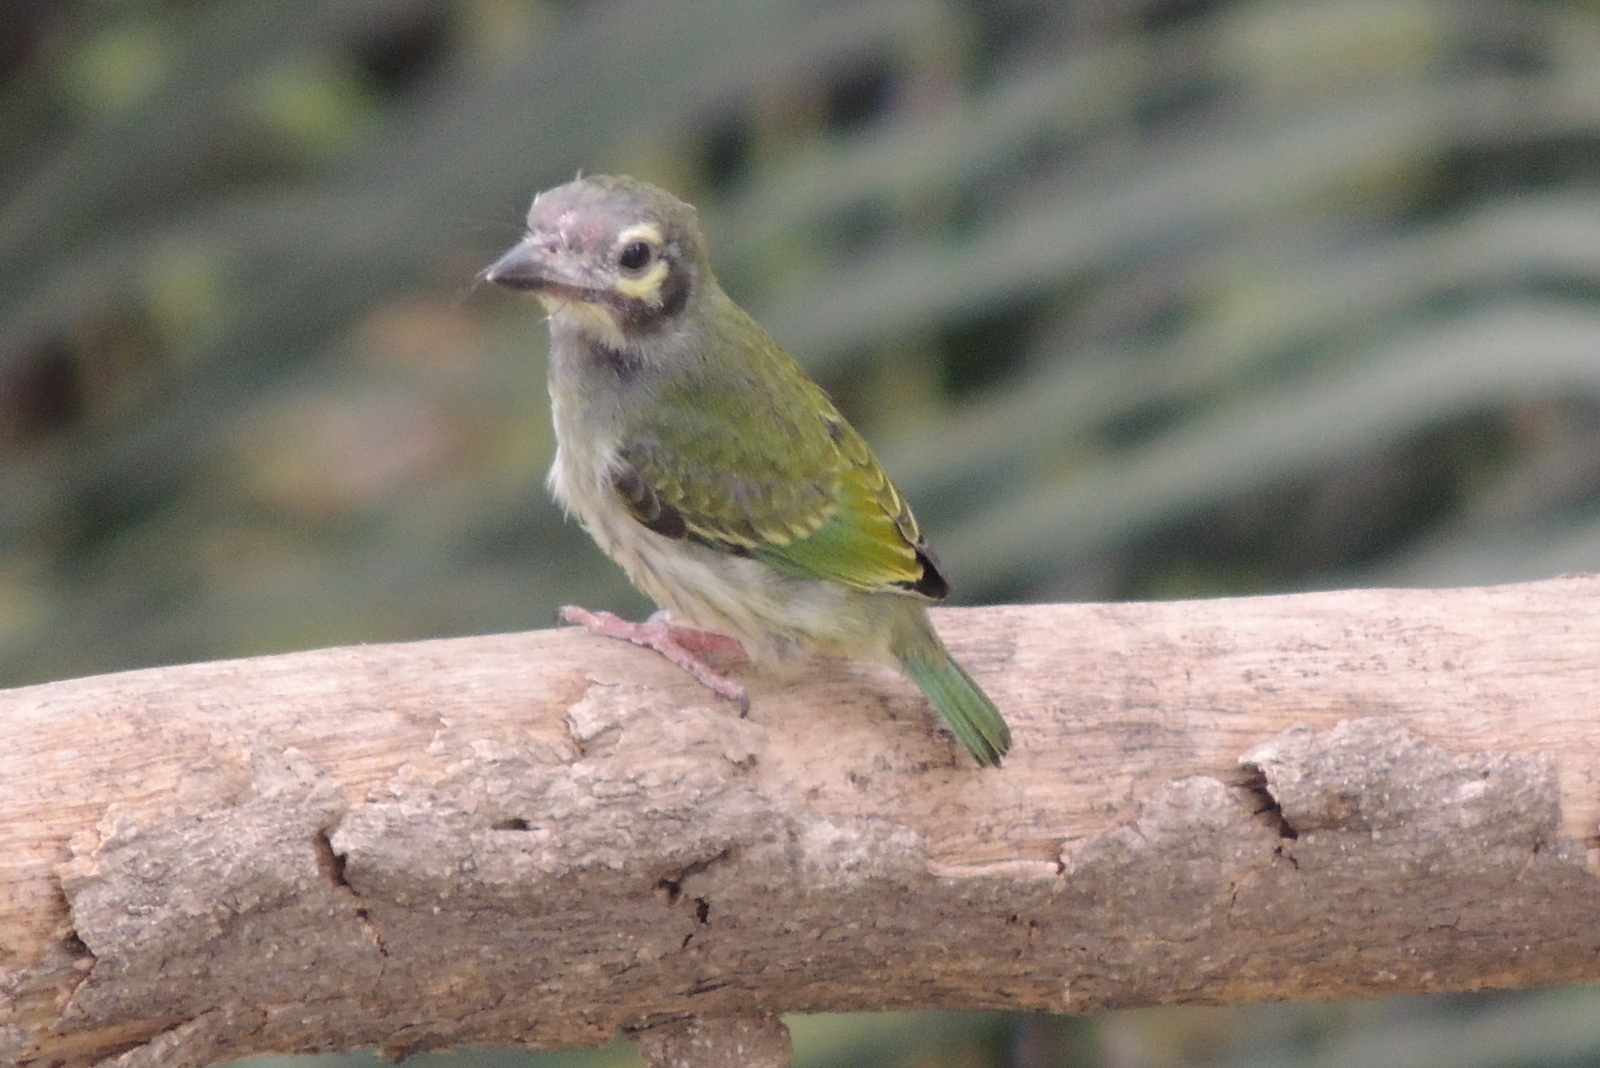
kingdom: Animalia
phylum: Chordata
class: Aves
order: Piciformes
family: Megalaimidae
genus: Psilopogon
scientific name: Psilopogon haemacephalus
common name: Coppersmith barbet
